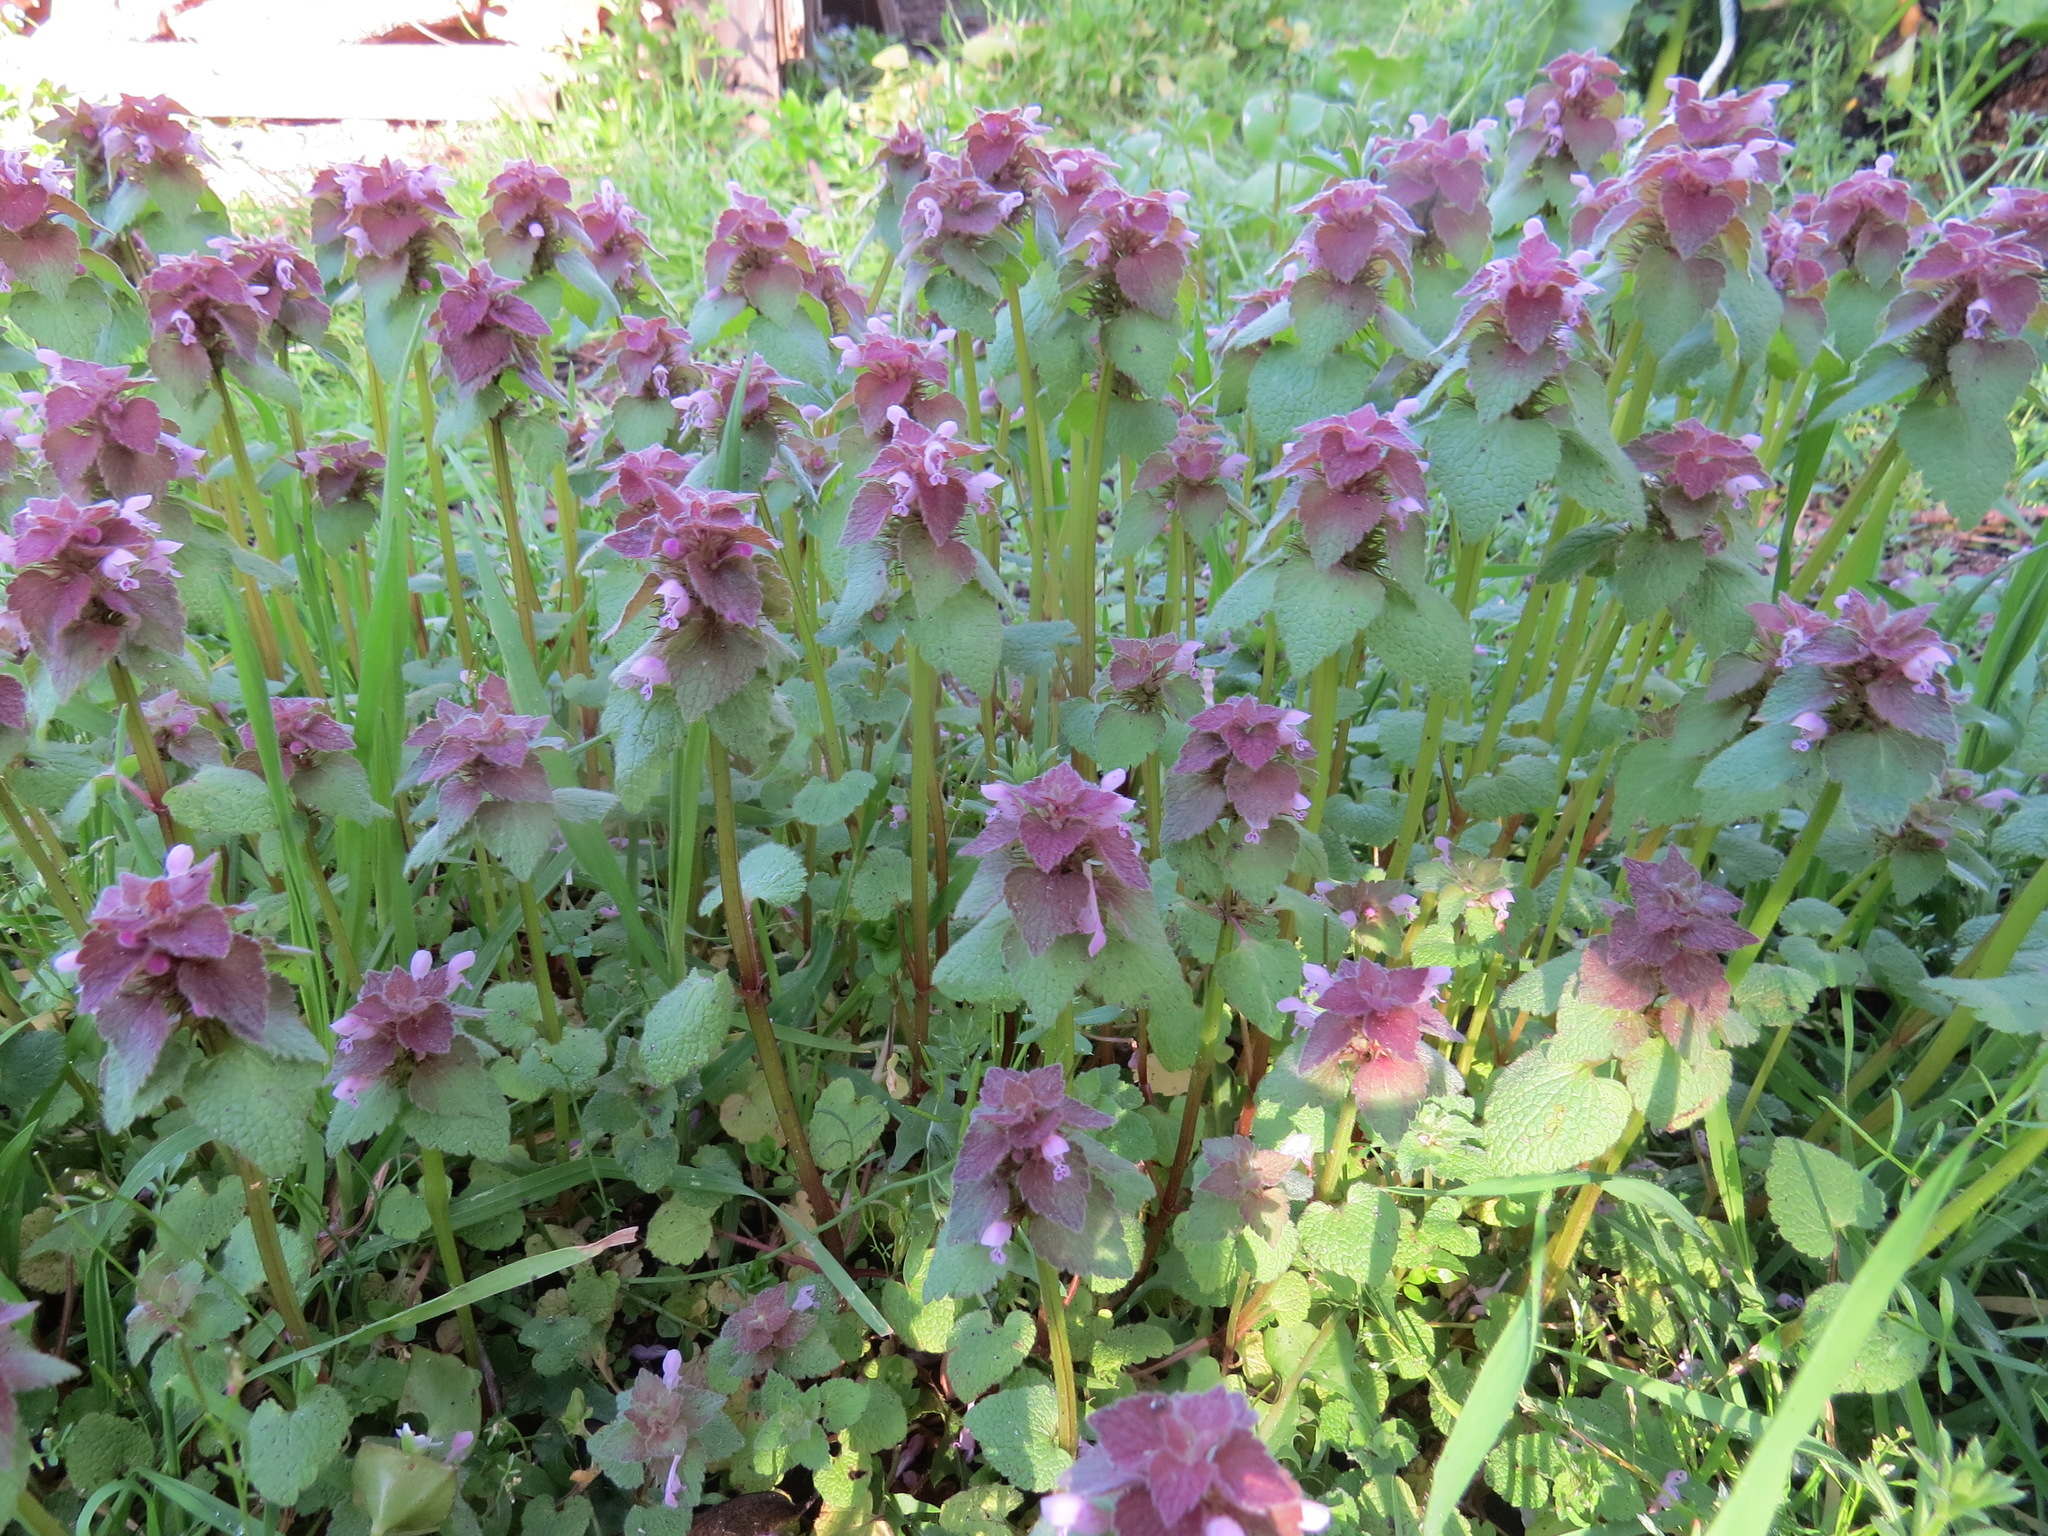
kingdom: Plantae
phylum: Tracheophyta
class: Magnoliopsida
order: Lamiales
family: Lamiaceae
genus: Lamium
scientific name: Lamium purpureum
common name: Red dead-nettle
